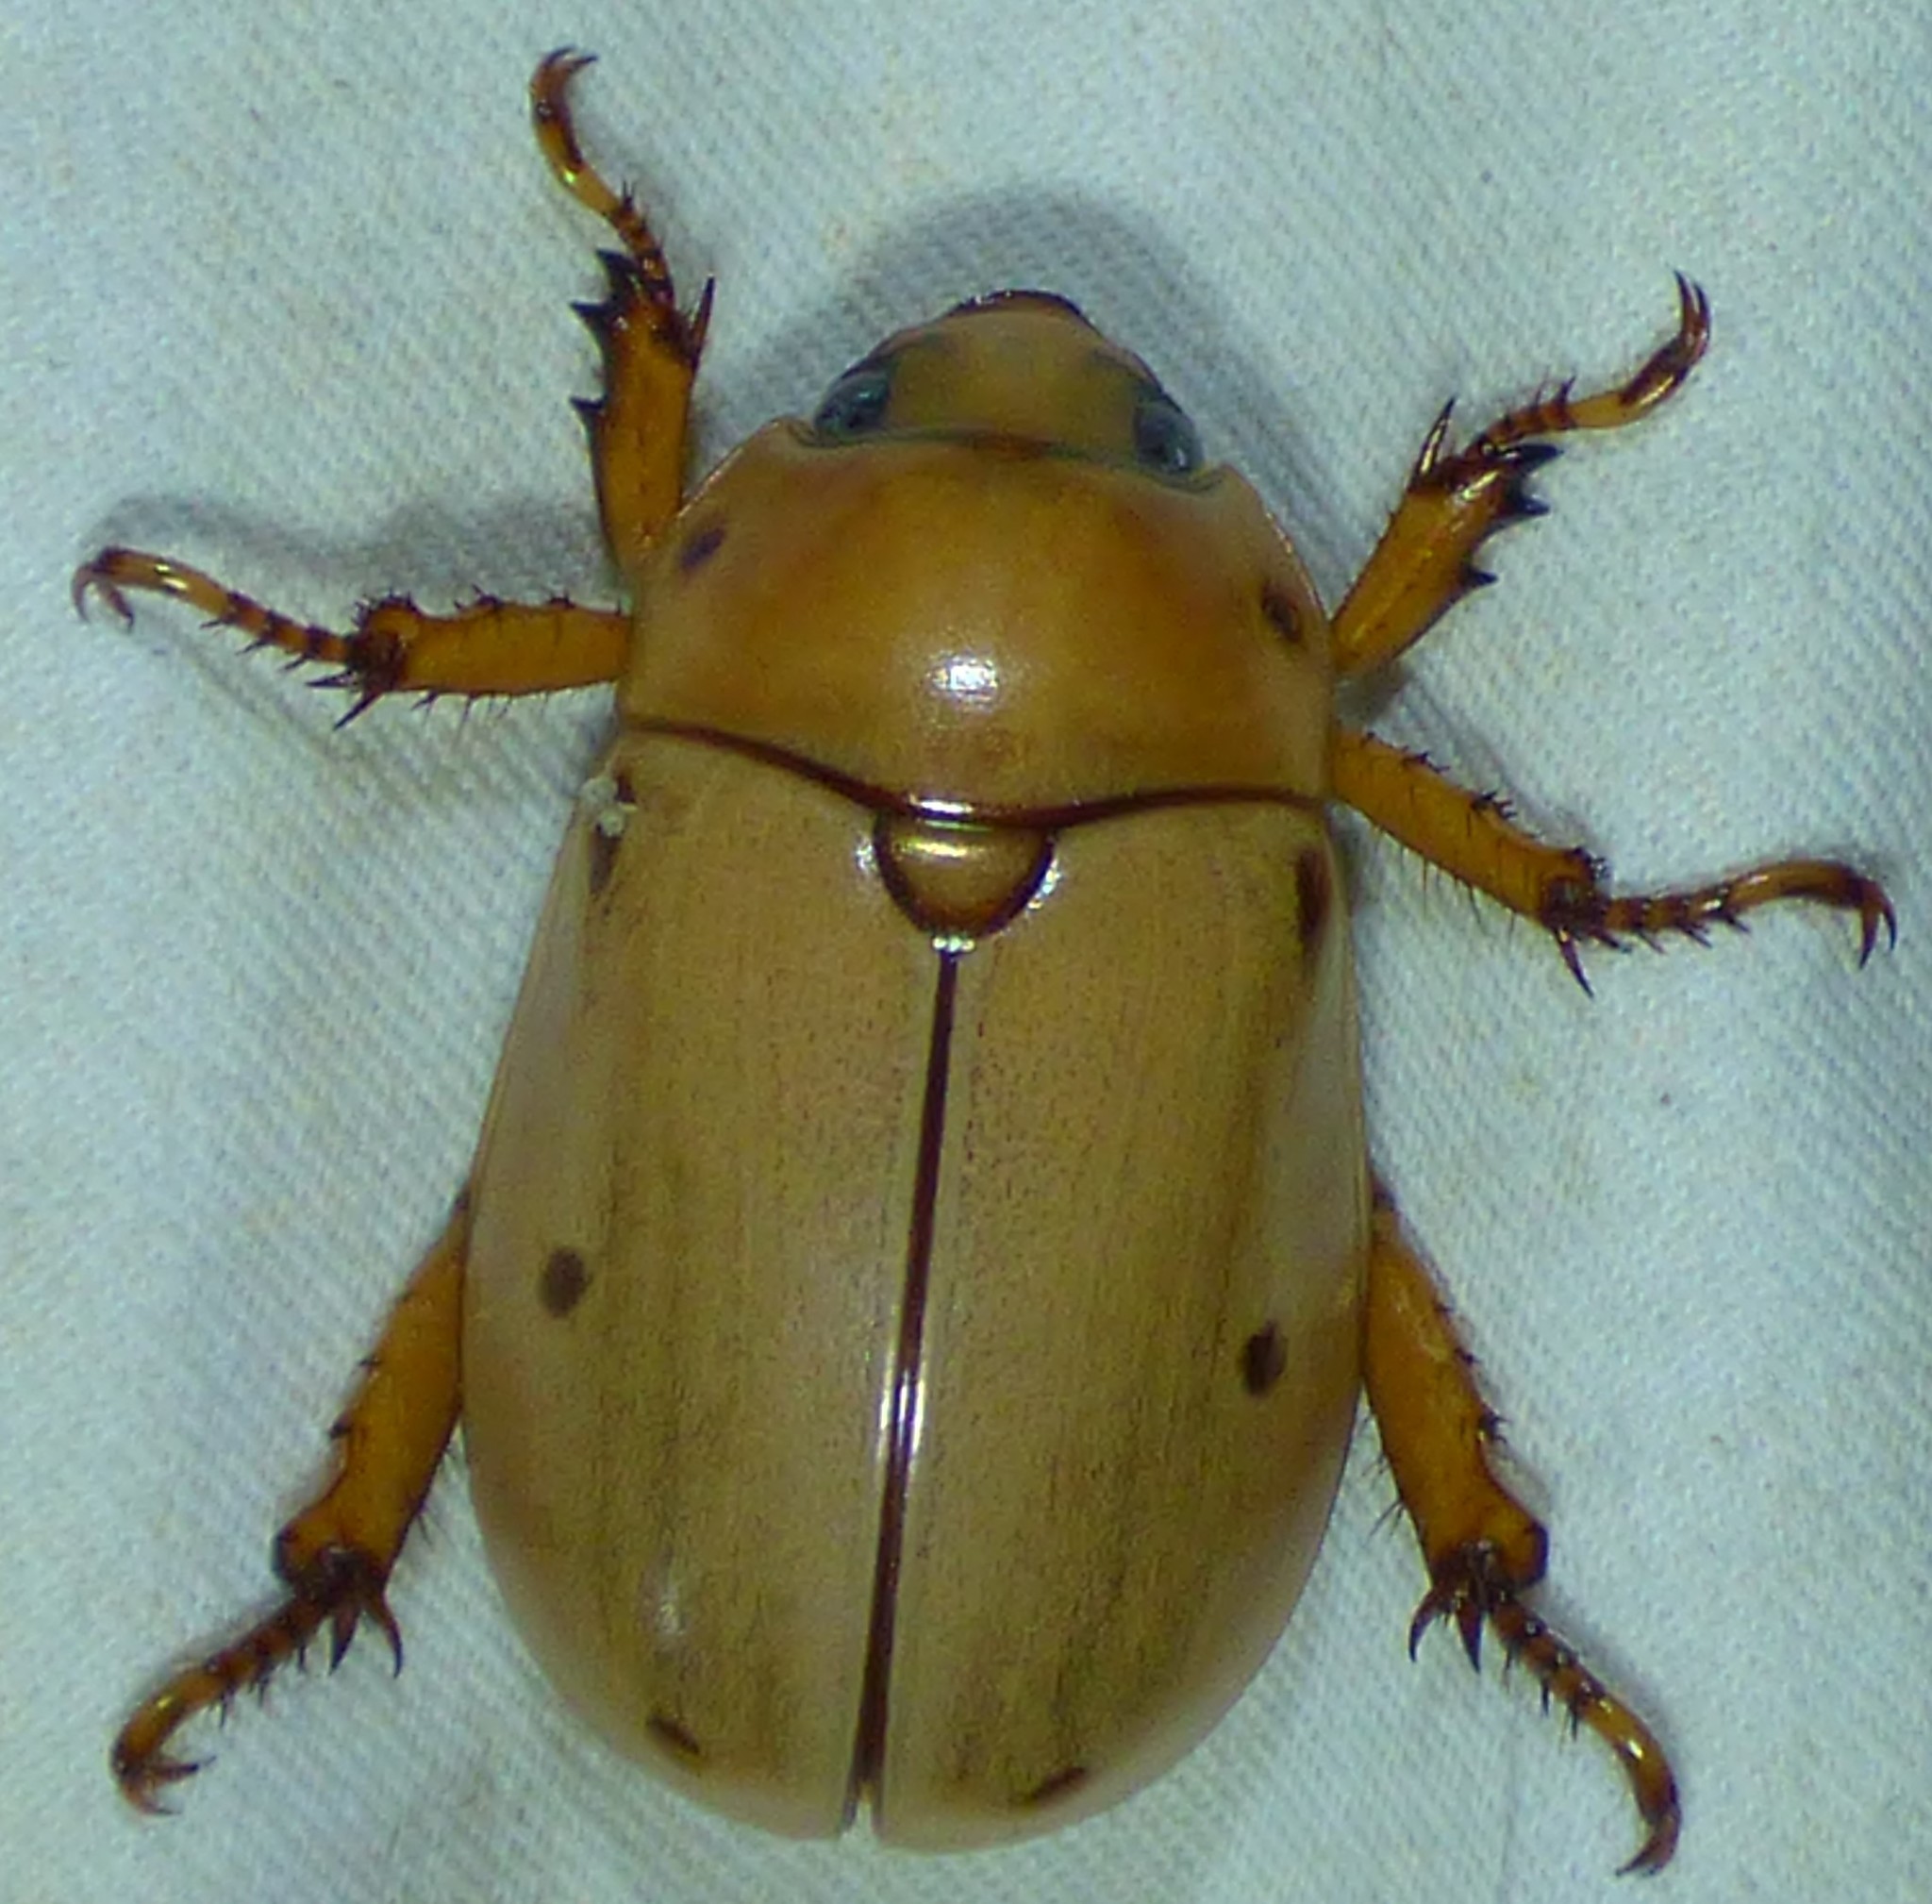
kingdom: Animalia
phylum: Arthropoda
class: Insecta
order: Coleoptera
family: Scarabaeidae
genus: Pelidnota
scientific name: Pelidnota punctata
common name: Grapevine beetle
